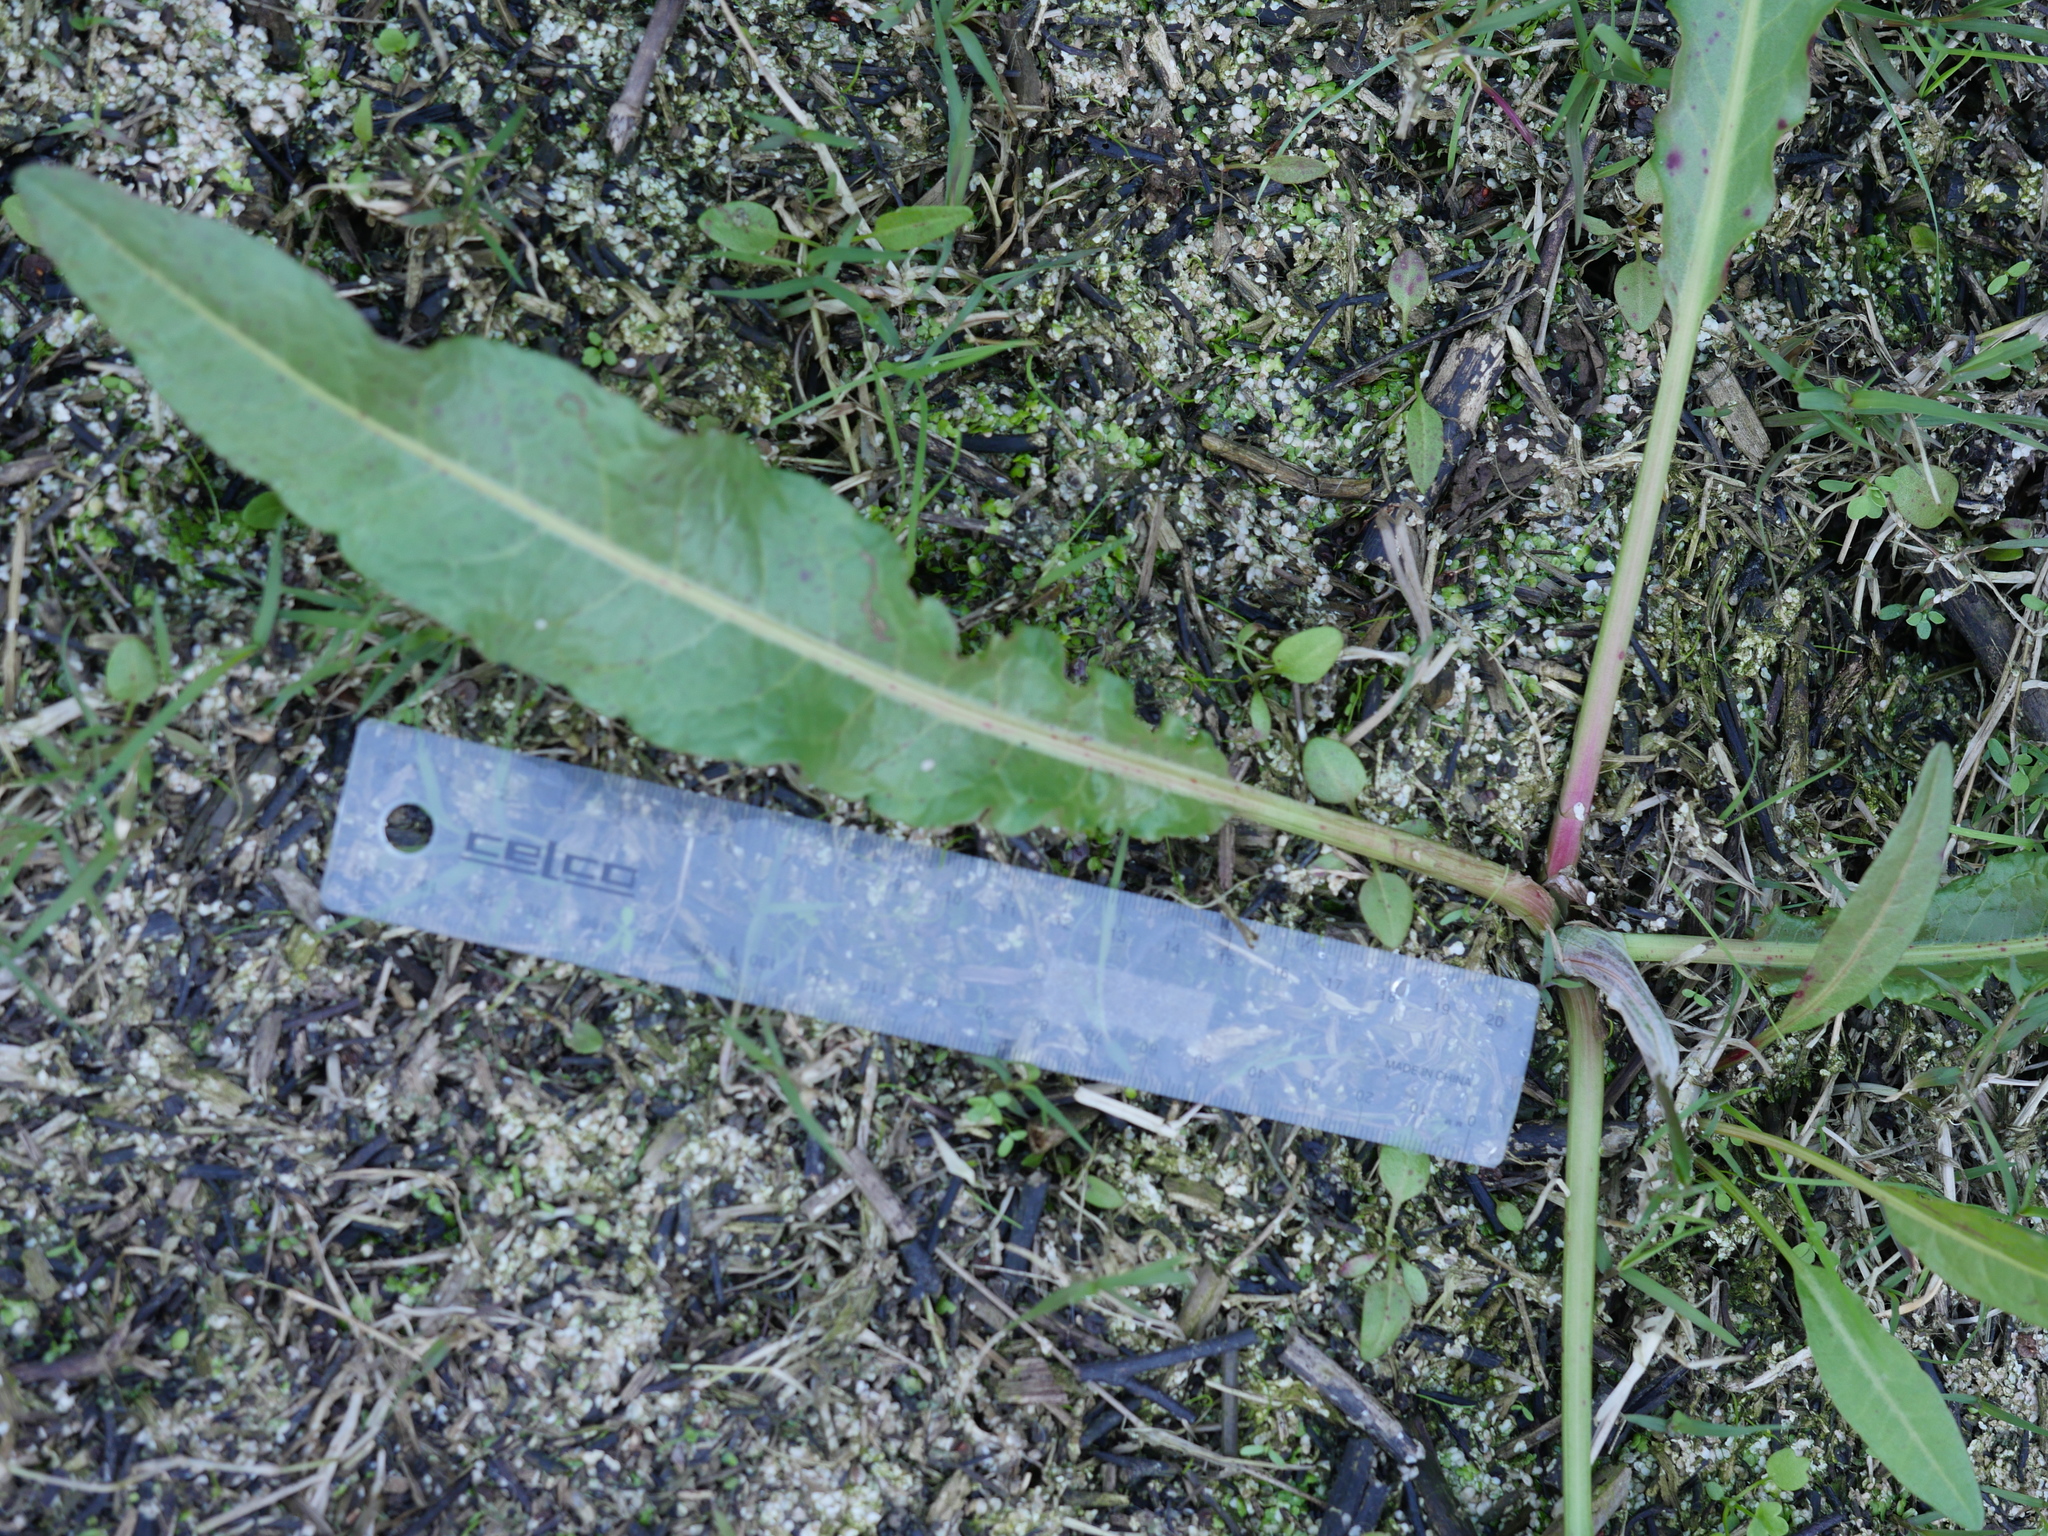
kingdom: Plantae
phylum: Tracheophyta
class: Magnoliopsida
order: Caryophyllales
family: Polygonaceae
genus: Rumex
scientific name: Rumex crispus
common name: Curled dock
